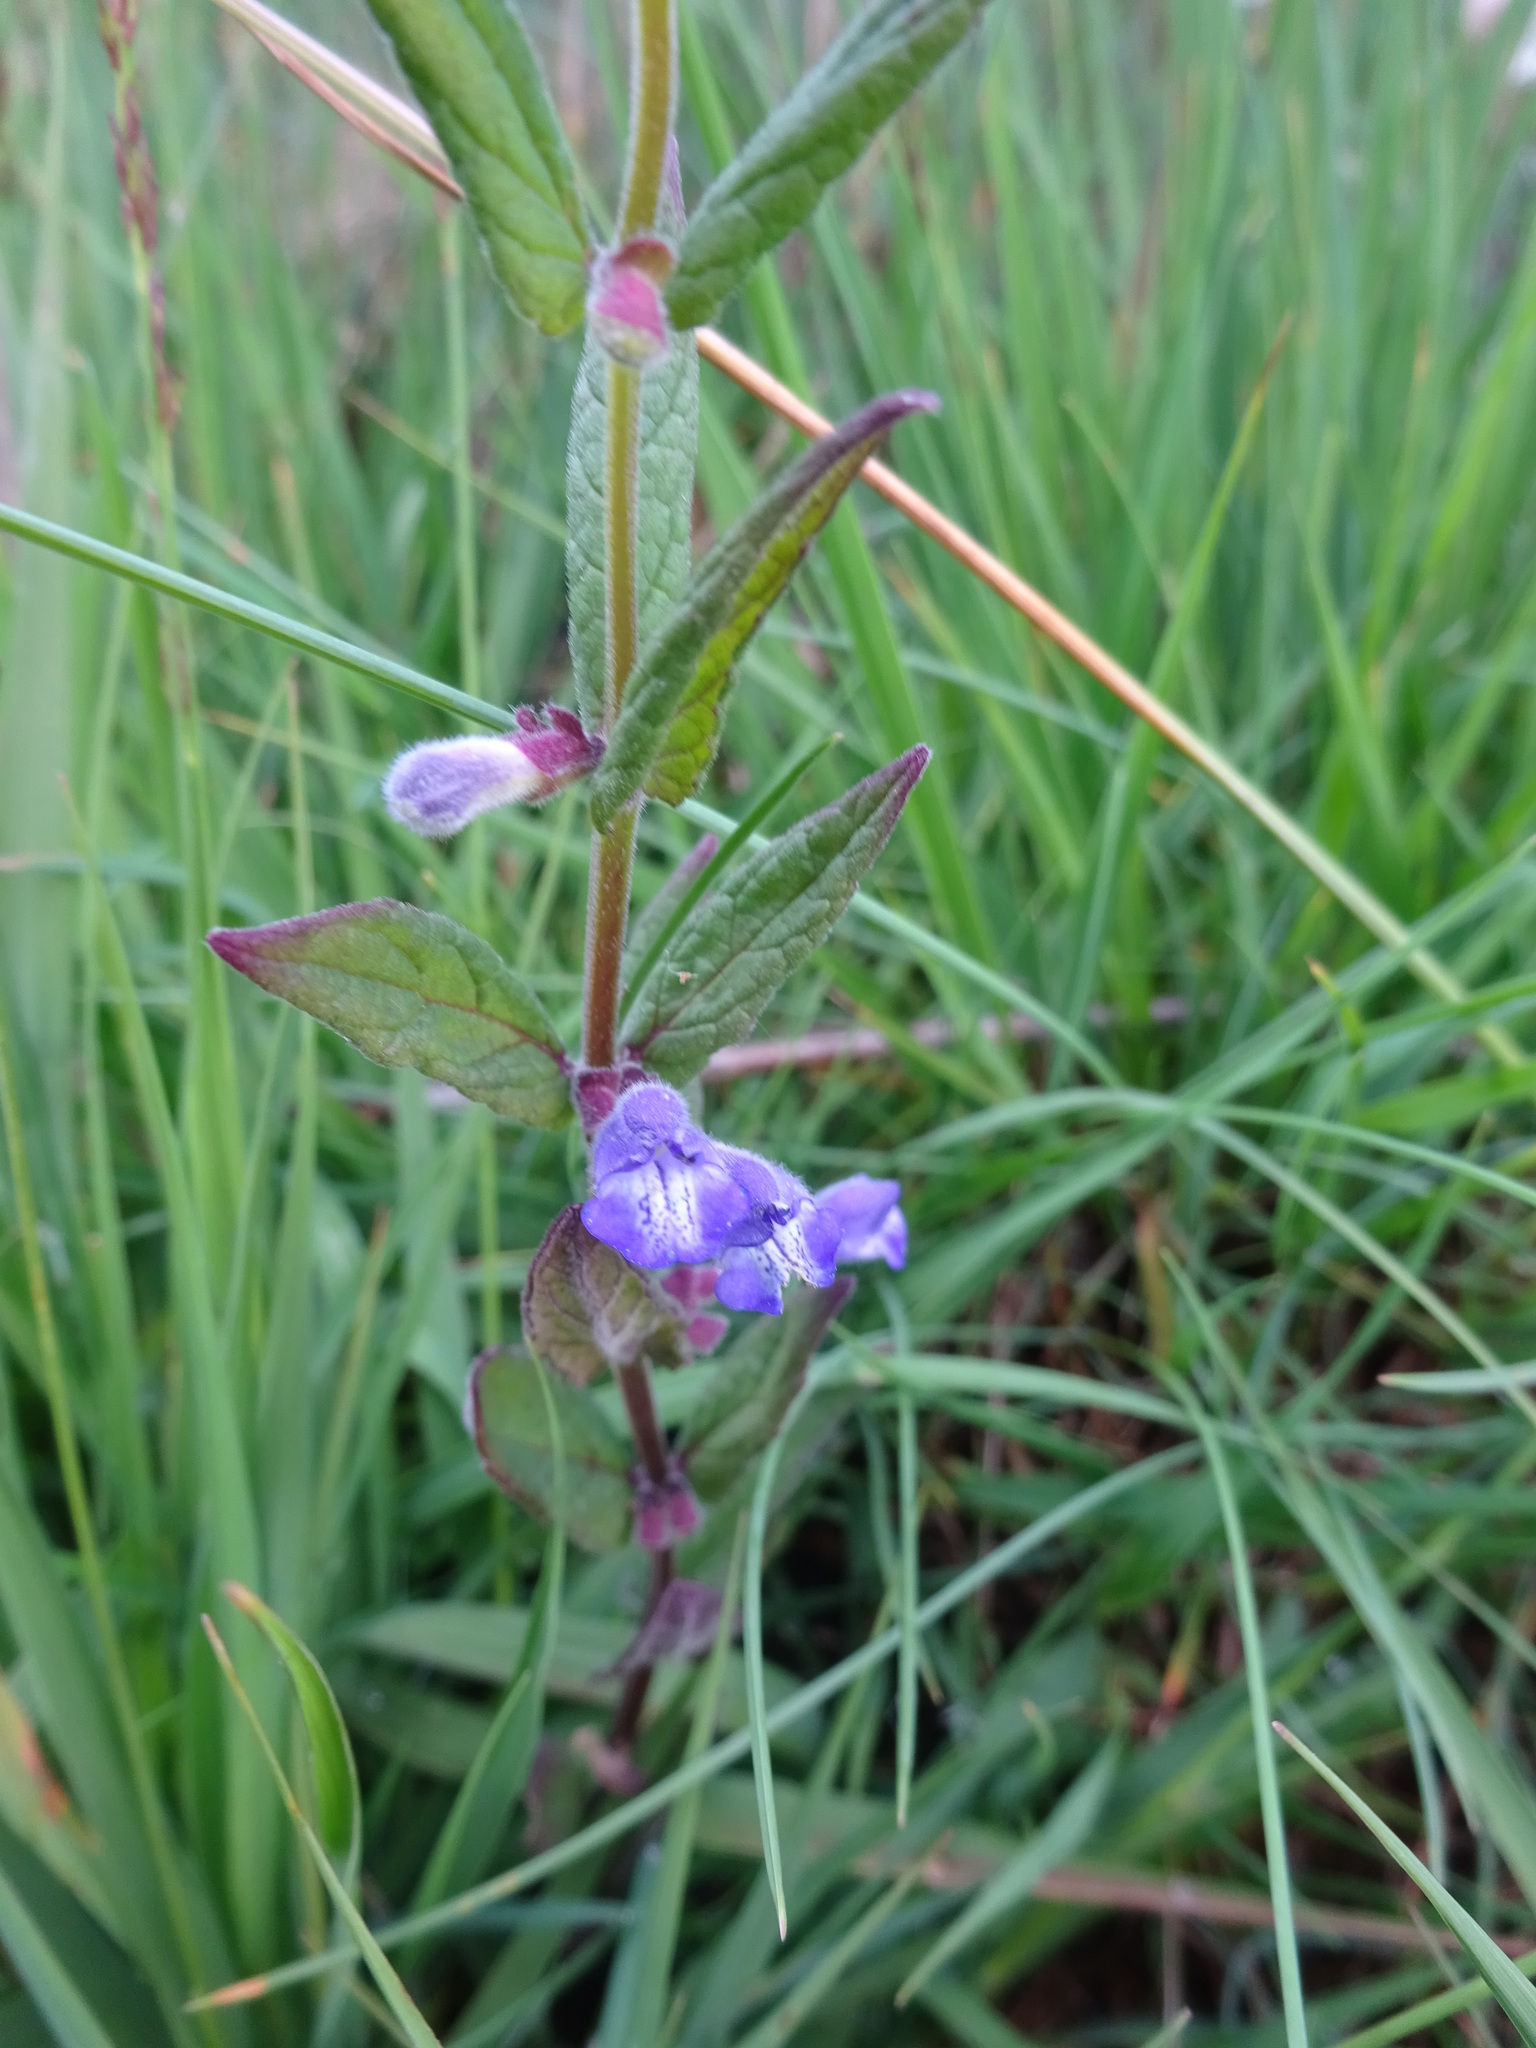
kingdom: Plantae
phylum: Tracheophyta
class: Magnoliopsida
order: Lamiales
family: Lamiaceae
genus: Scutellaria
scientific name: Scutellaria galericulata
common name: Skullcap
